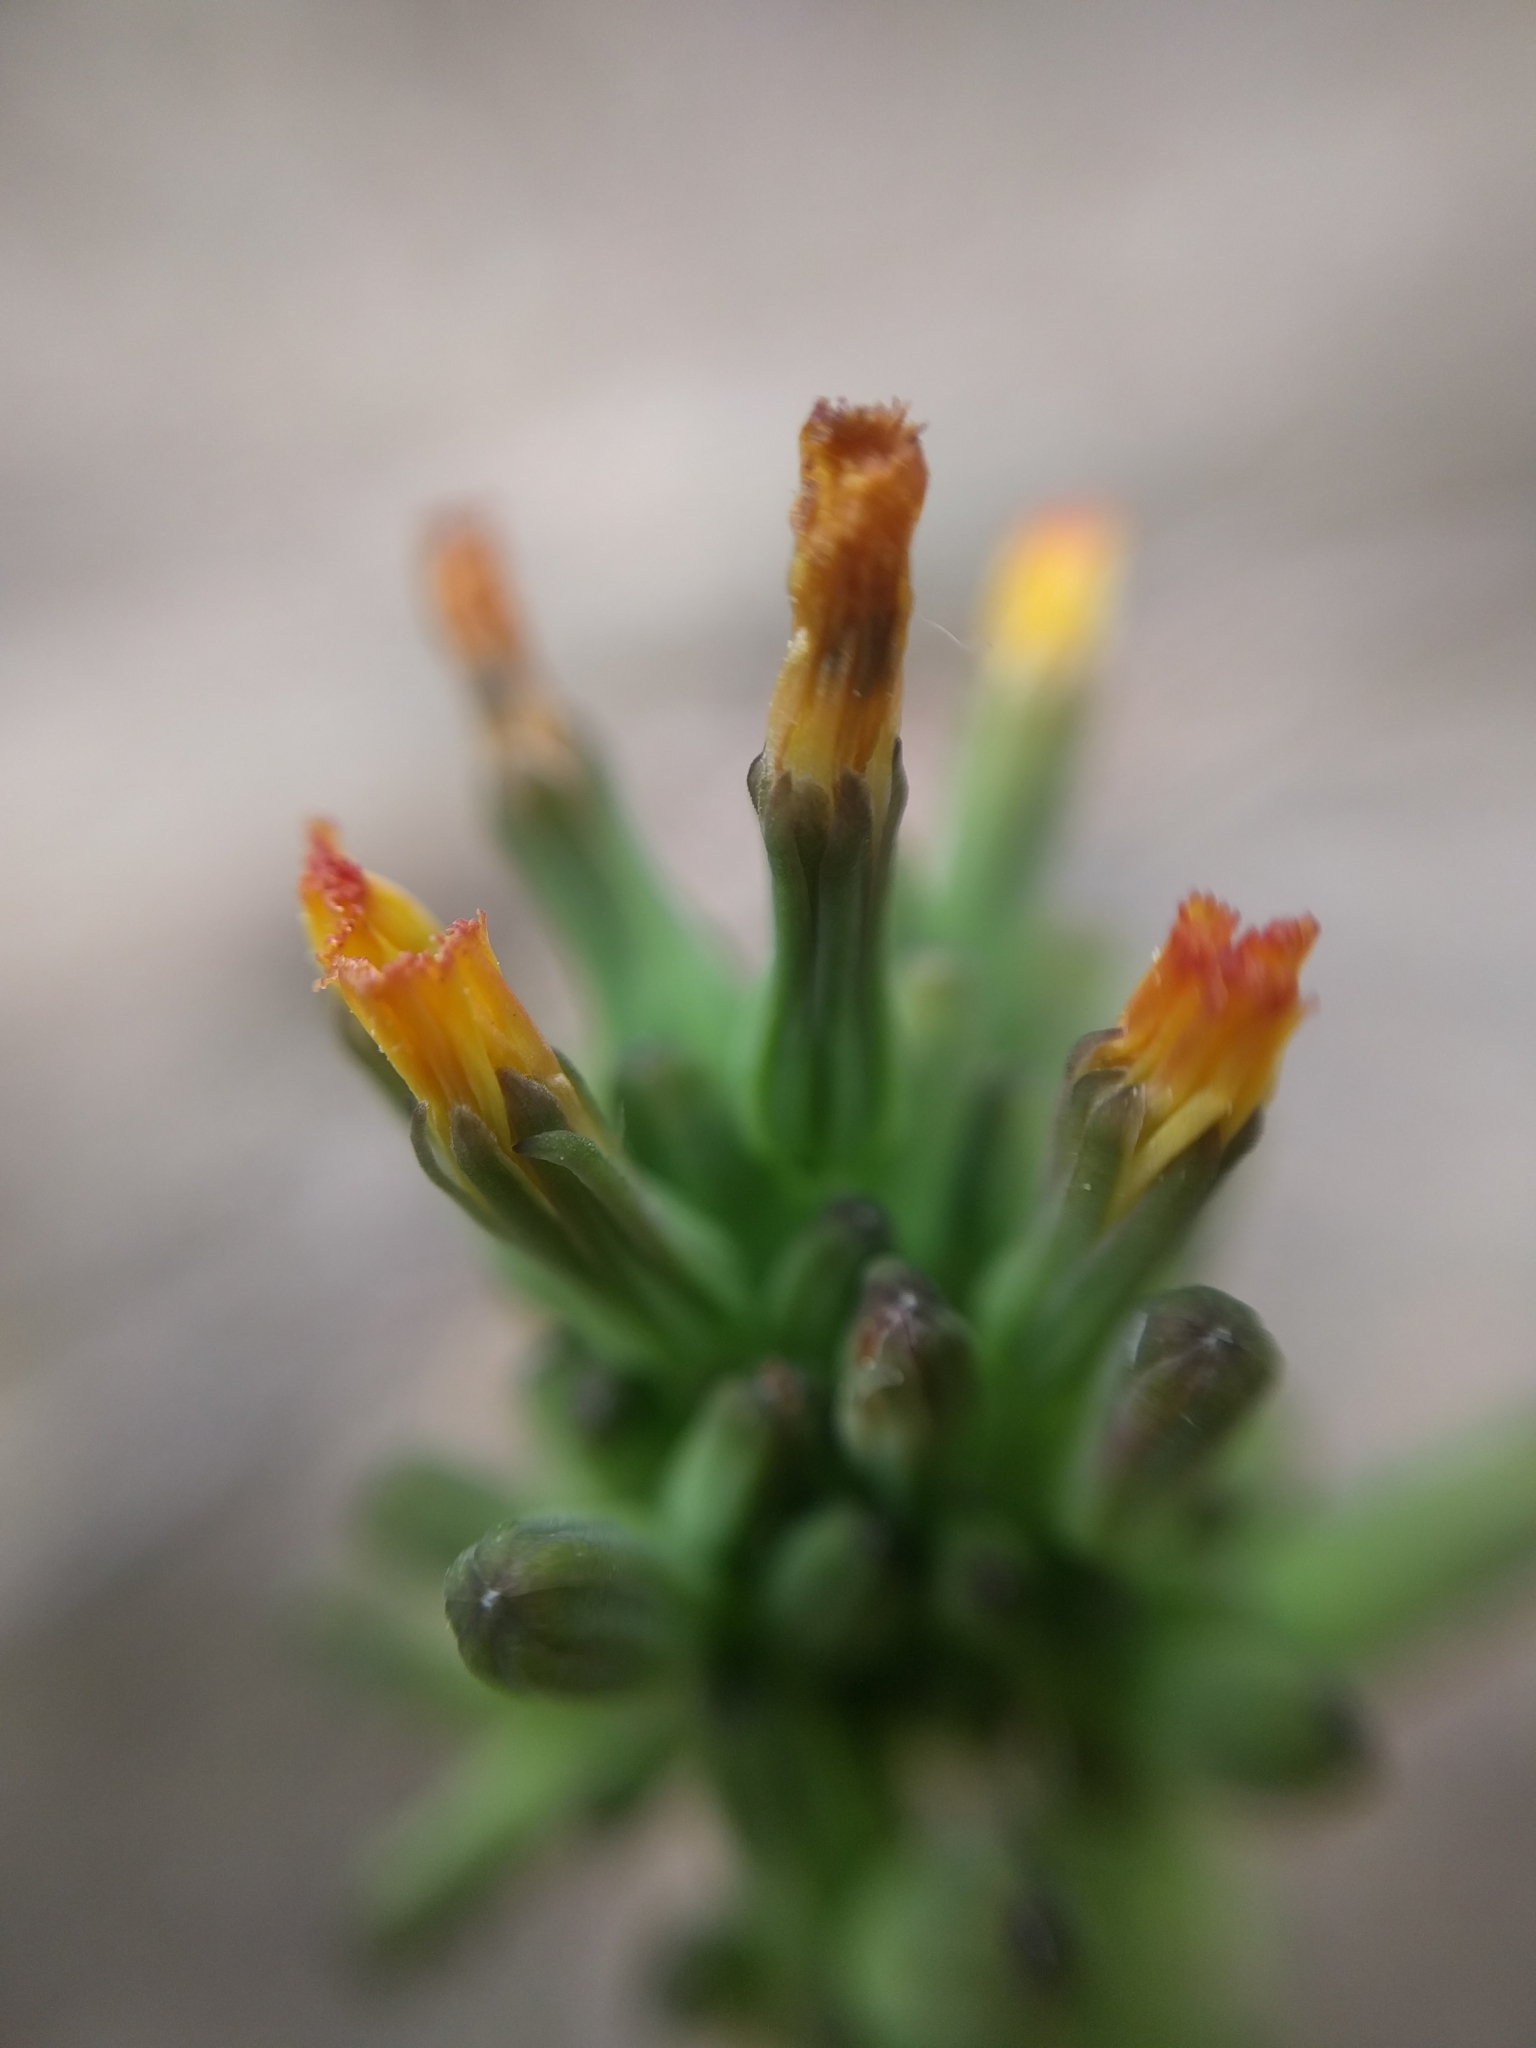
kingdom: Plantae
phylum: Tracheophyta
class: Magnoliopsida
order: Asterales
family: Asteraceae
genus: Youngia
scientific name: Youngia japonica
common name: Oriental false hawksbeard
